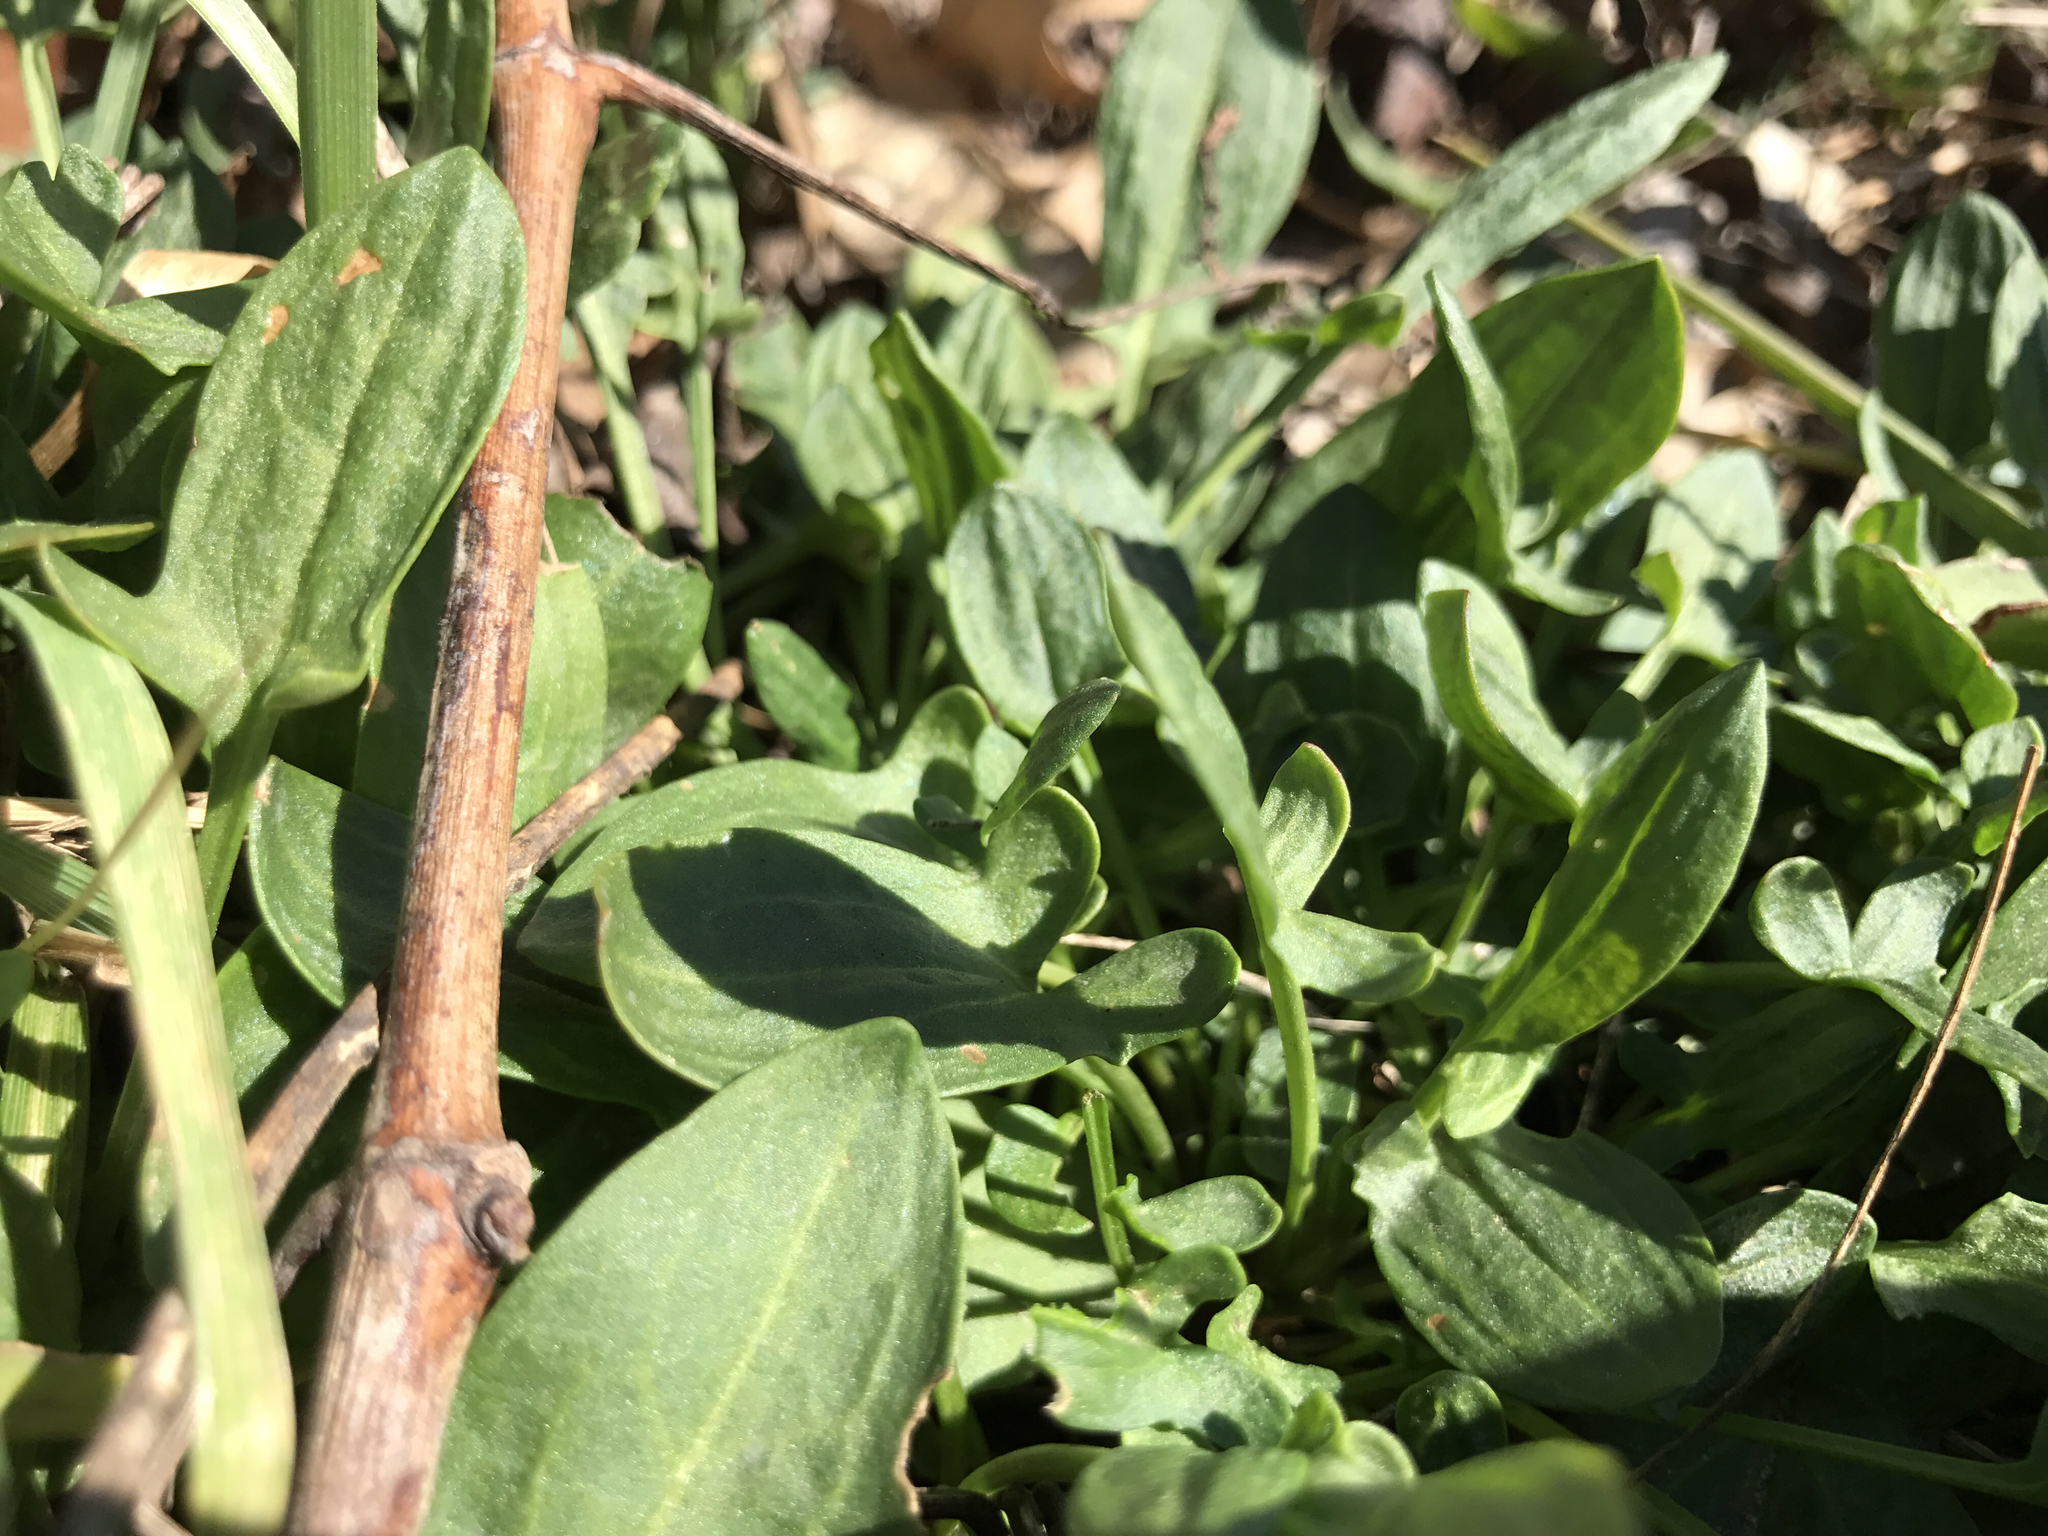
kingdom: Plantae
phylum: Tracheophyta
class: Magnoliopsida
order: Caryophyllales
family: Polygonaceae
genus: Rumex
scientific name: Rumex acetosella
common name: Common sheep sorrel
